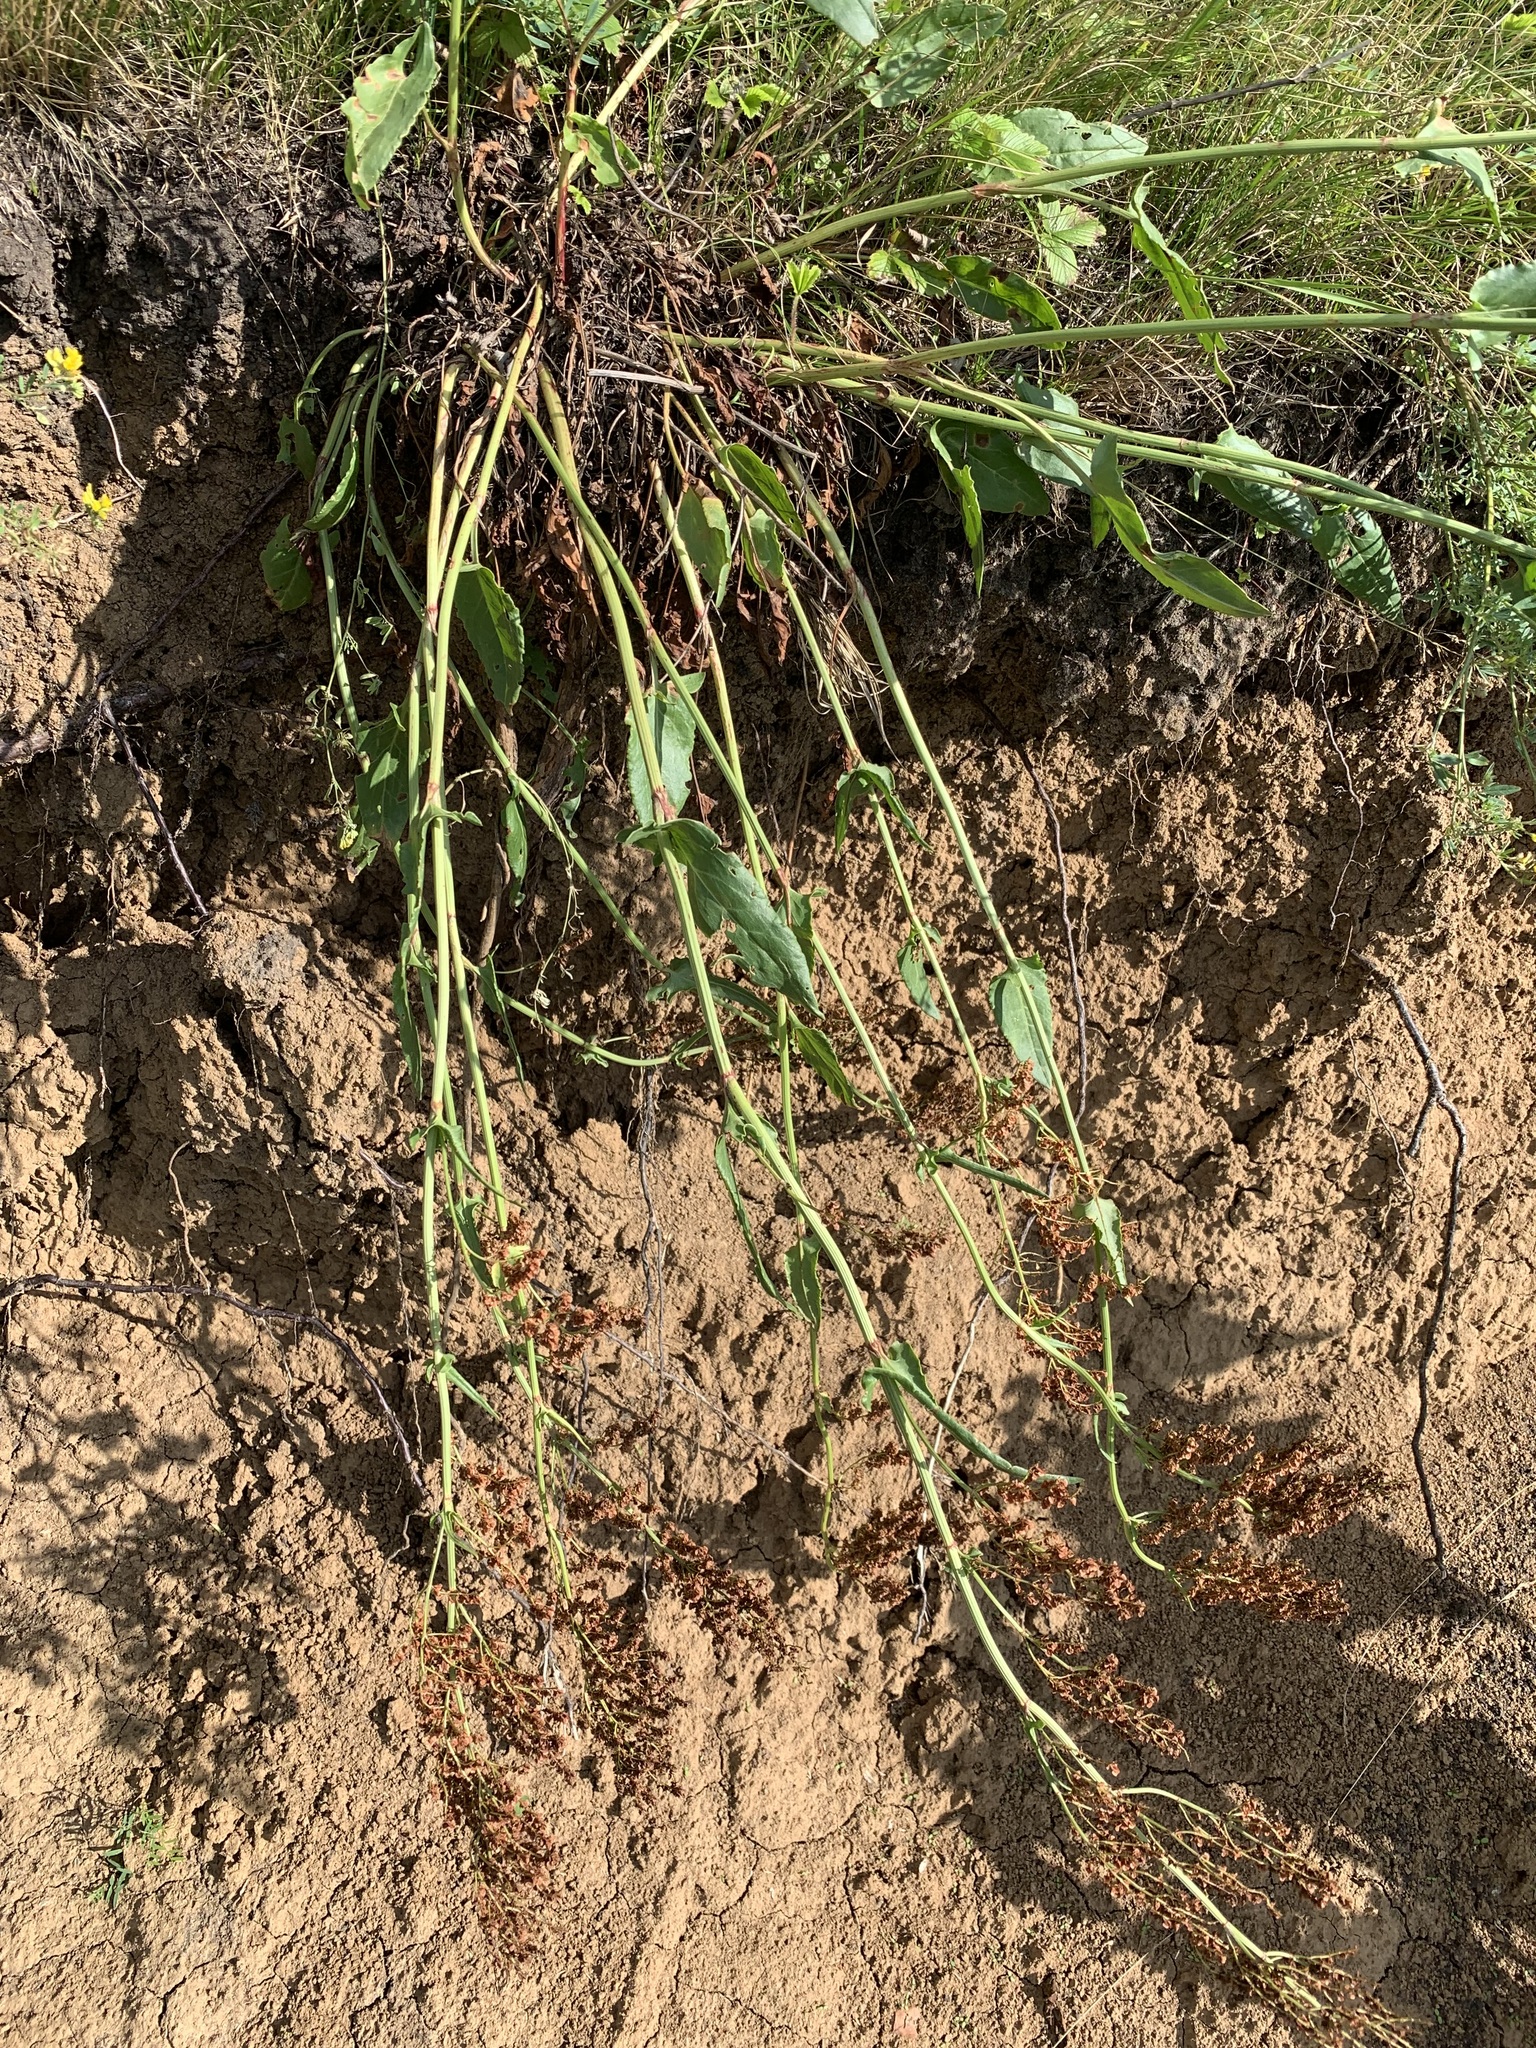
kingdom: Plantae
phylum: Tracheophyta
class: Magnoliopsida
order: Caryophyllales
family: Polygonaceae
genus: Rumex
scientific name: Rumex thyrsiflorus
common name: Garden sorrel
